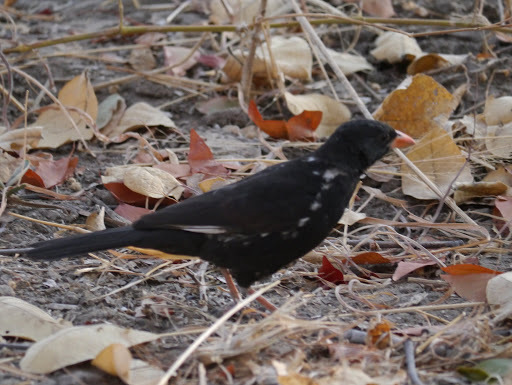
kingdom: Animalia
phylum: Chordata
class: Aves
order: Passeriformes
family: Ploceidae
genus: Bubalornis
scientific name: Bubalornis niger
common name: Red-billed buffalo weaver
